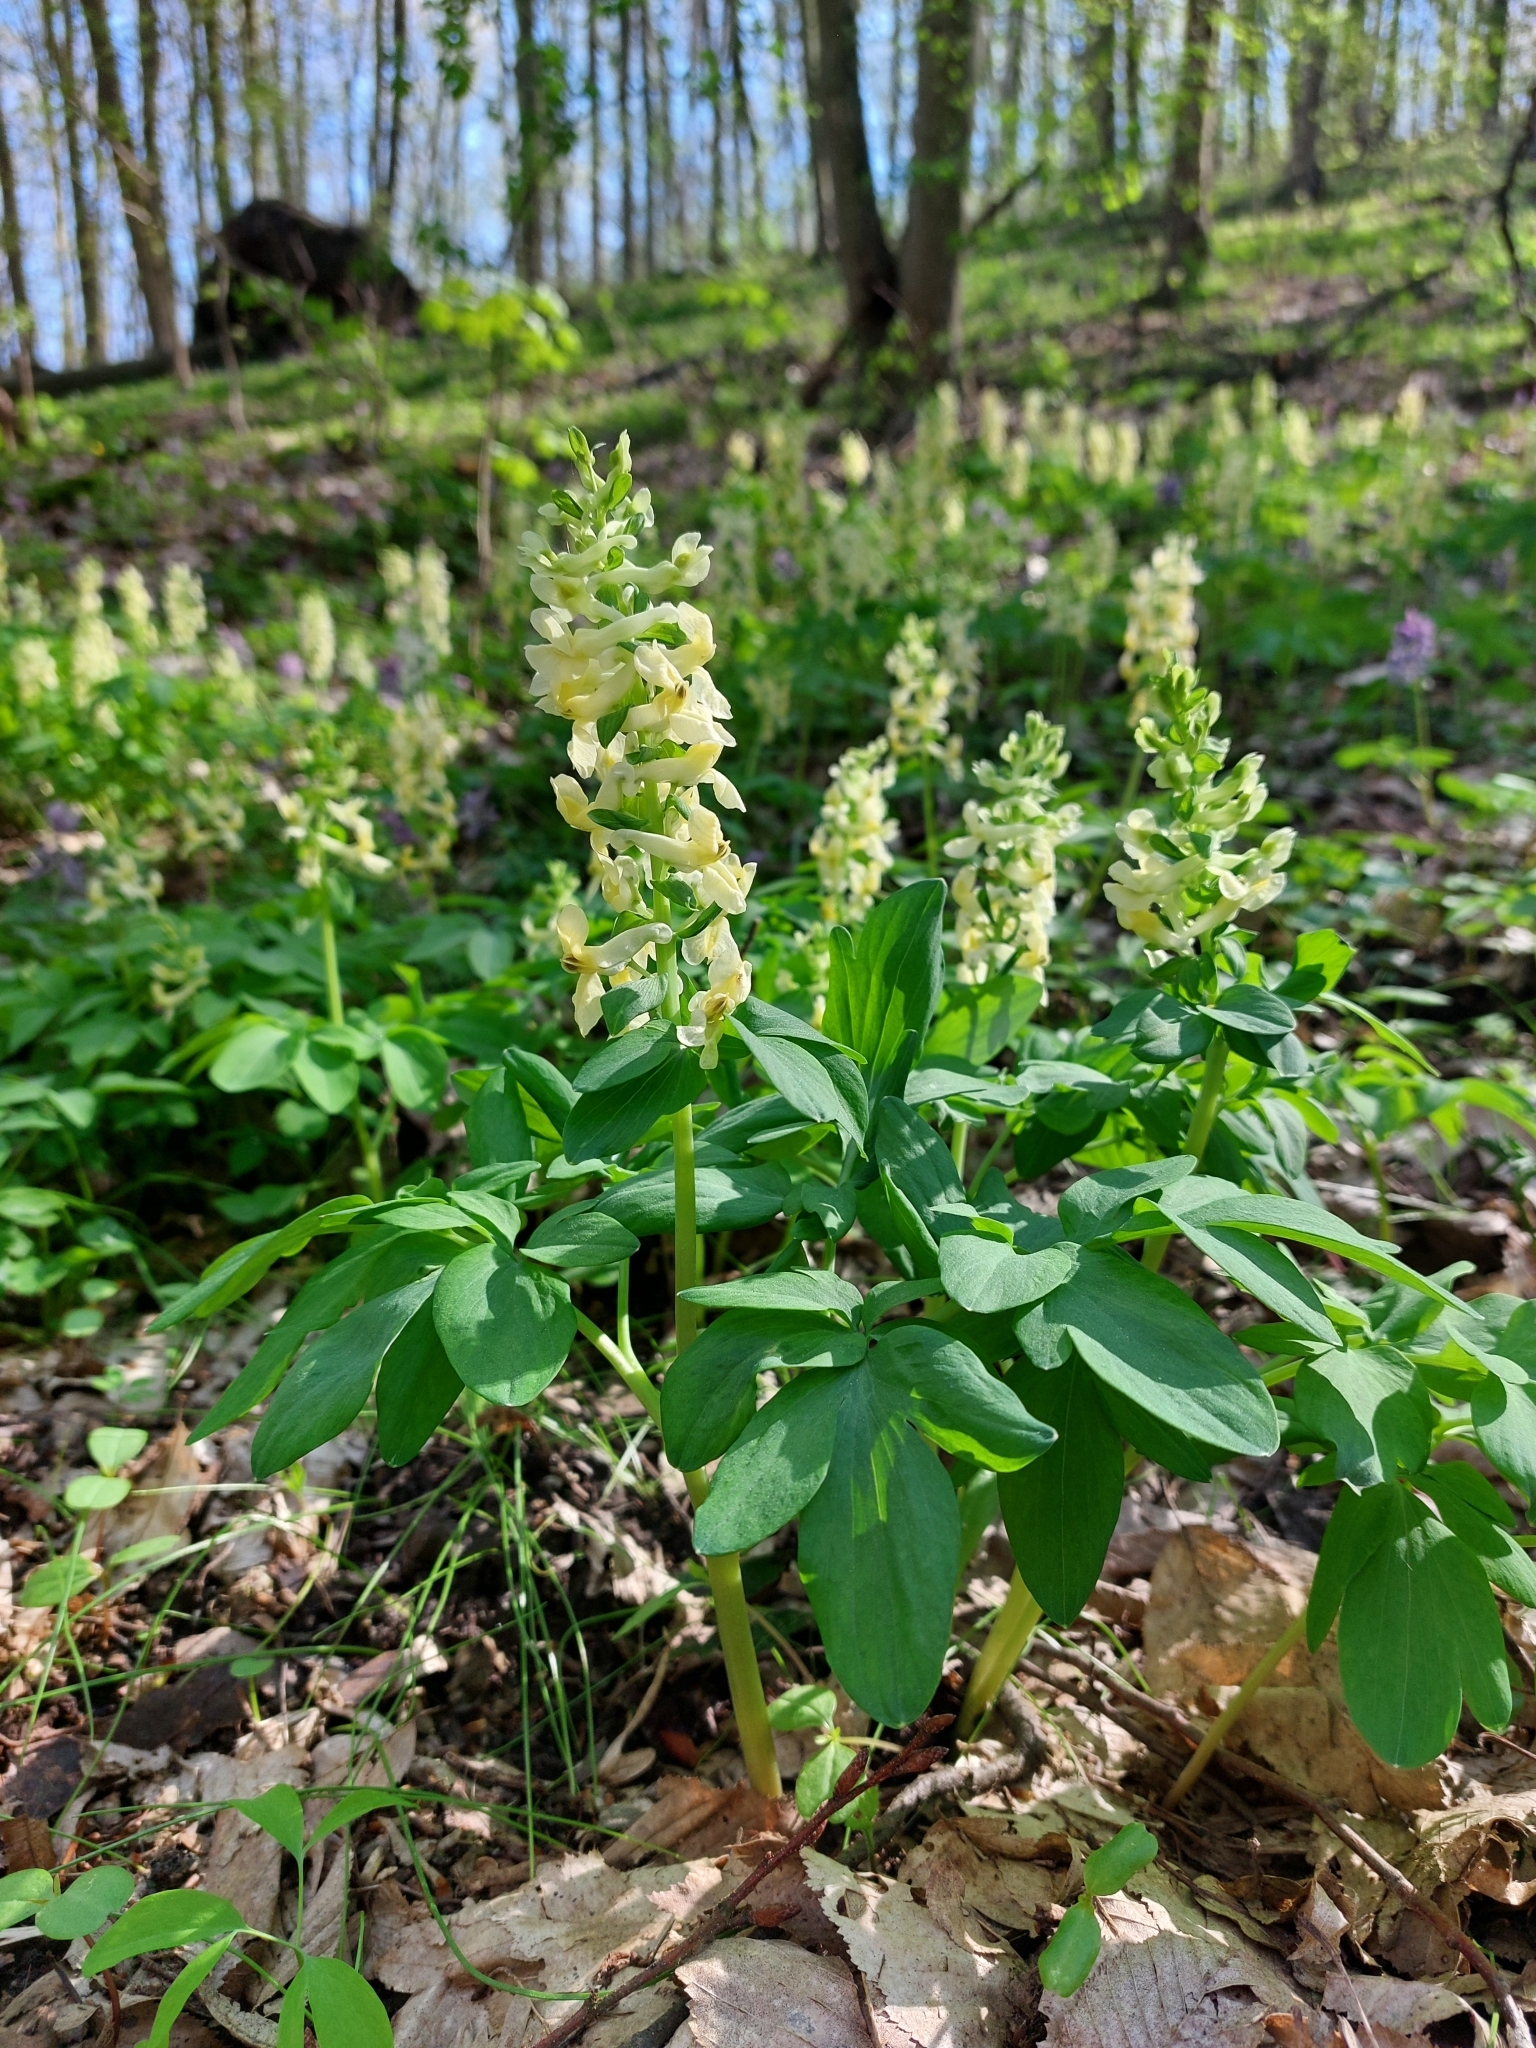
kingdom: Plantae
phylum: Tracheophyta
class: Magnoliopsida
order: Ranunculales
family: Papaveraceae
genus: Corydalis
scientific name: Corydalis cava
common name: Hollowroot
